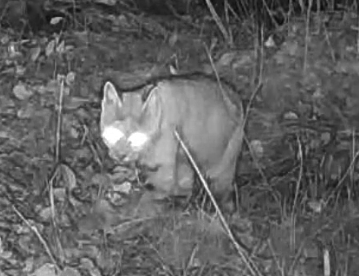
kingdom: Animalia
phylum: Chordata
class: Mammalia
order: Carnivora
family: Felidae
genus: Lynx
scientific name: Lynx rufus
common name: Bobcat
